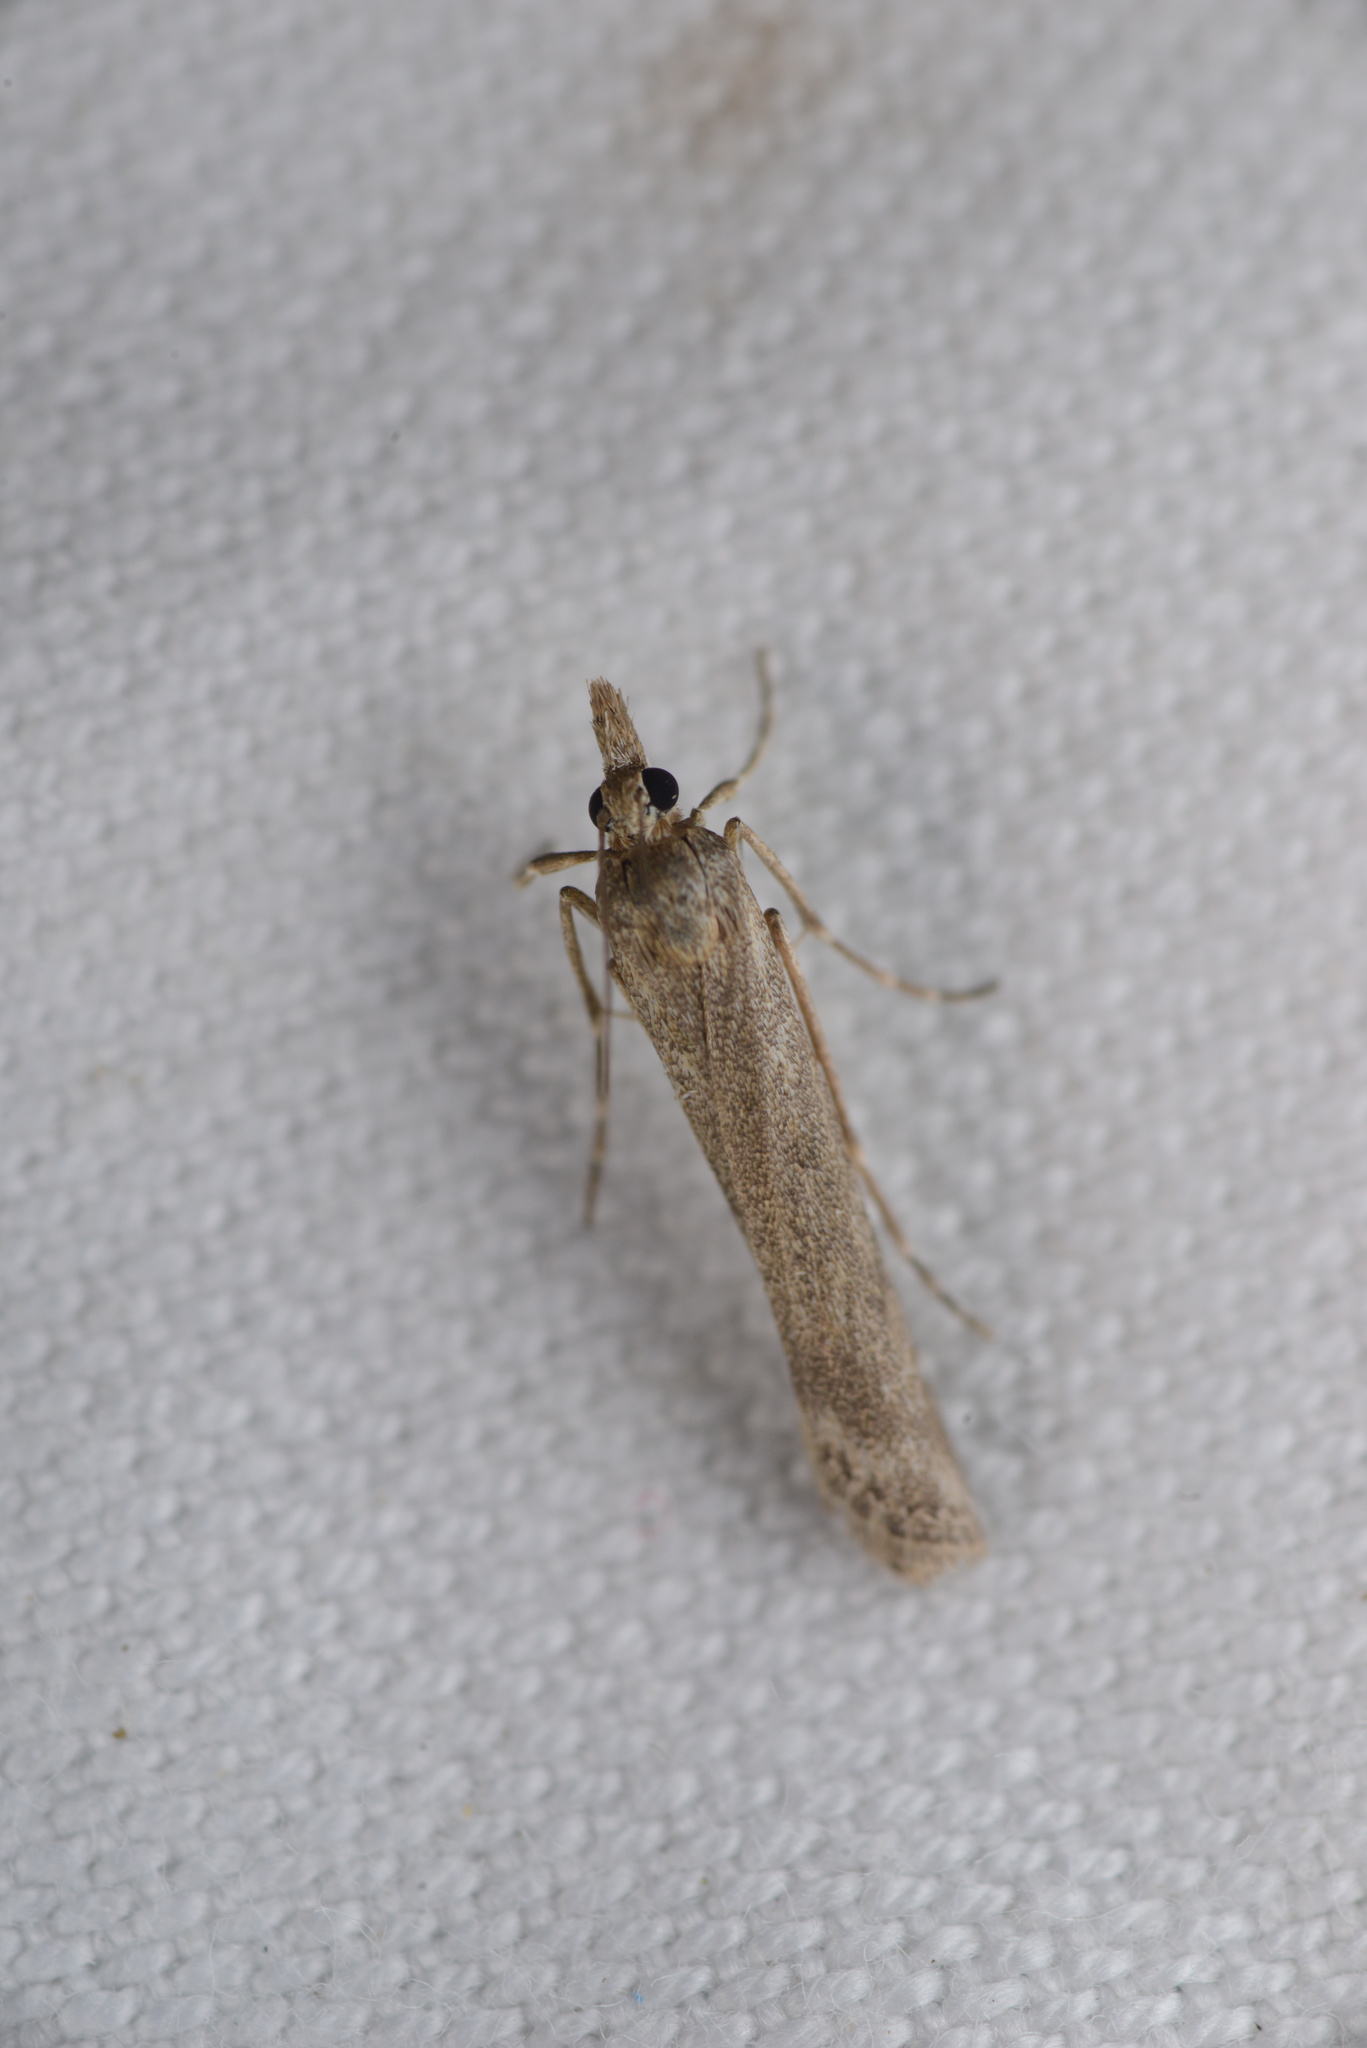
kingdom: Animalia
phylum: Arthropoda
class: Insecta
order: Lepidoptera
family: Crambidae
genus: Eudonia
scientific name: Eudonia leptalea
